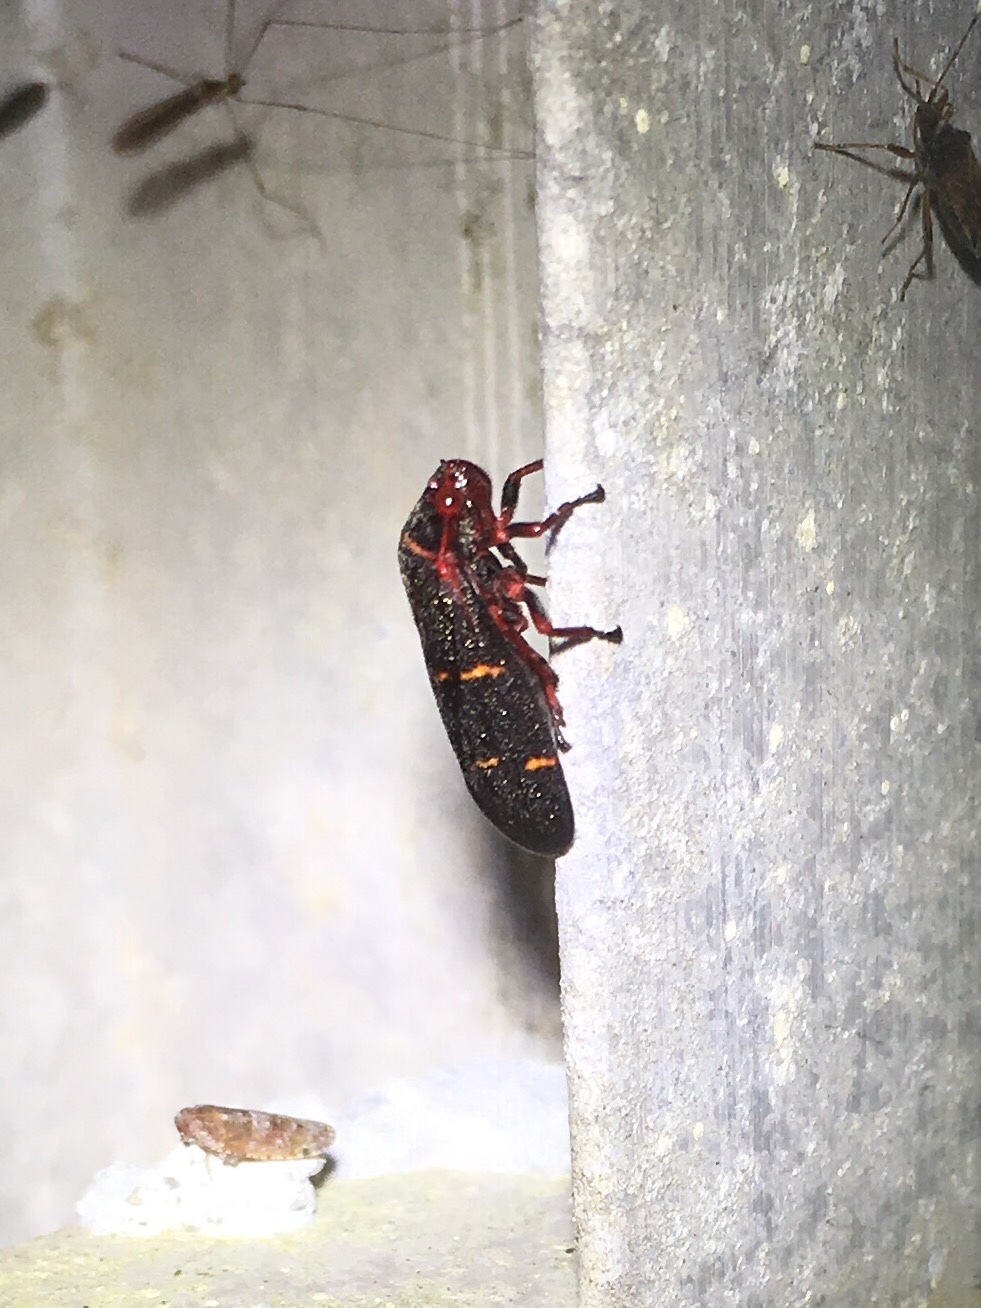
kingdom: Animalia
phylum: Arthropoda
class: Insecta
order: Hemiptera
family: Cercopidae
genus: Prosapia
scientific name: Prosapia bicincta
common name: Twolined spittlebug
